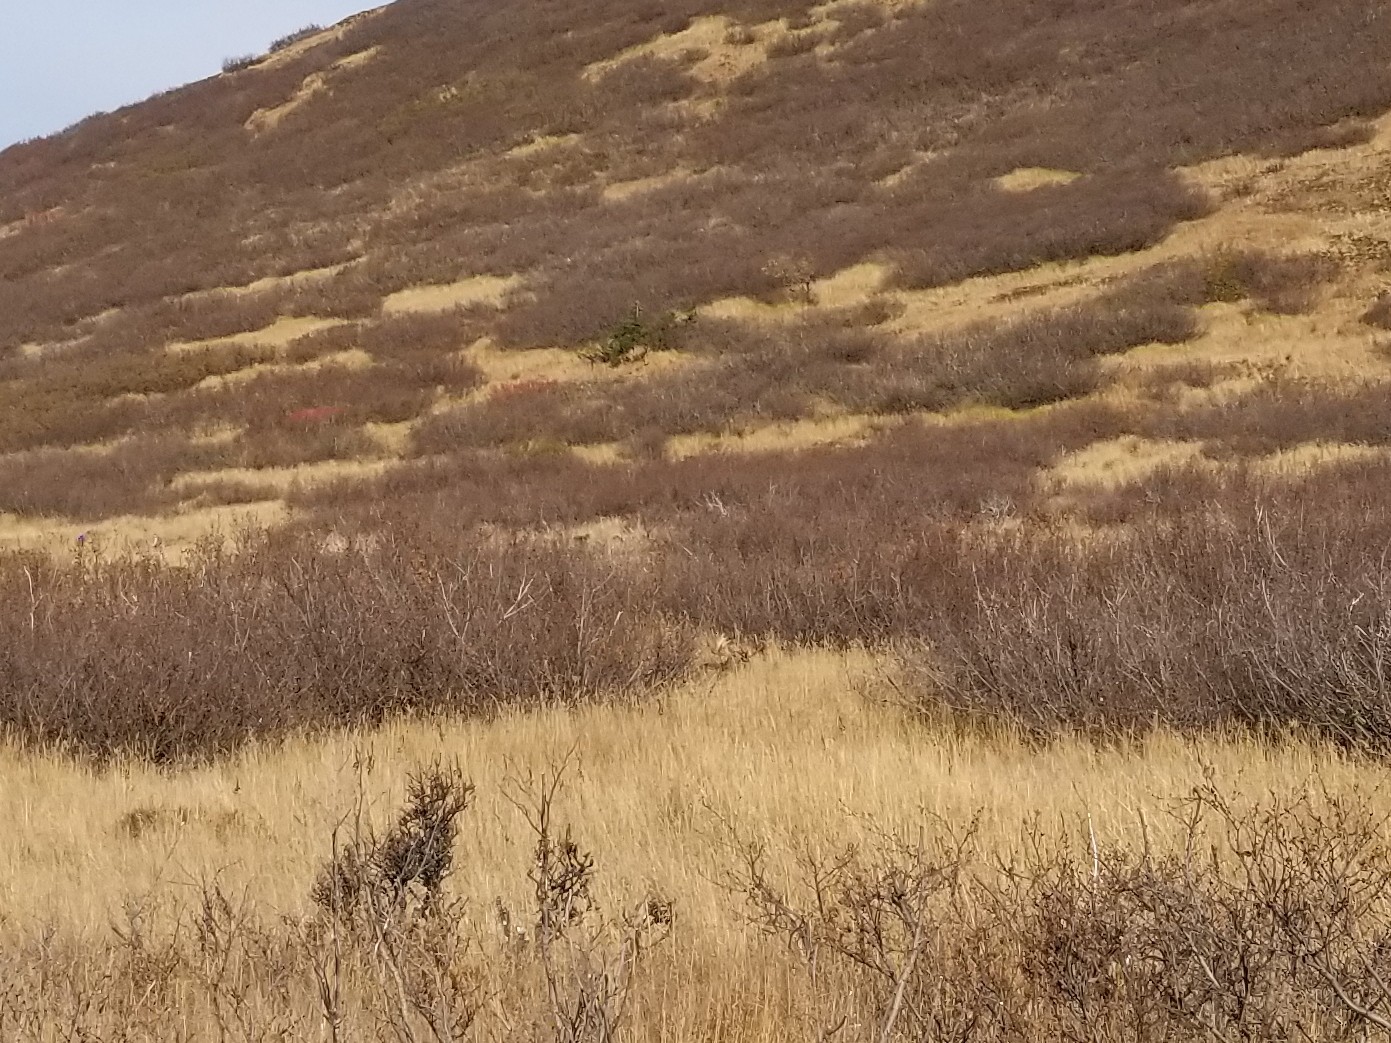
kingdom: Animalia
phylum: Chordata
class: Mammalia
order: Artiodactyla
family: Cervidae
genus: Alces
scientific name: Alces alces
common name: Moose
